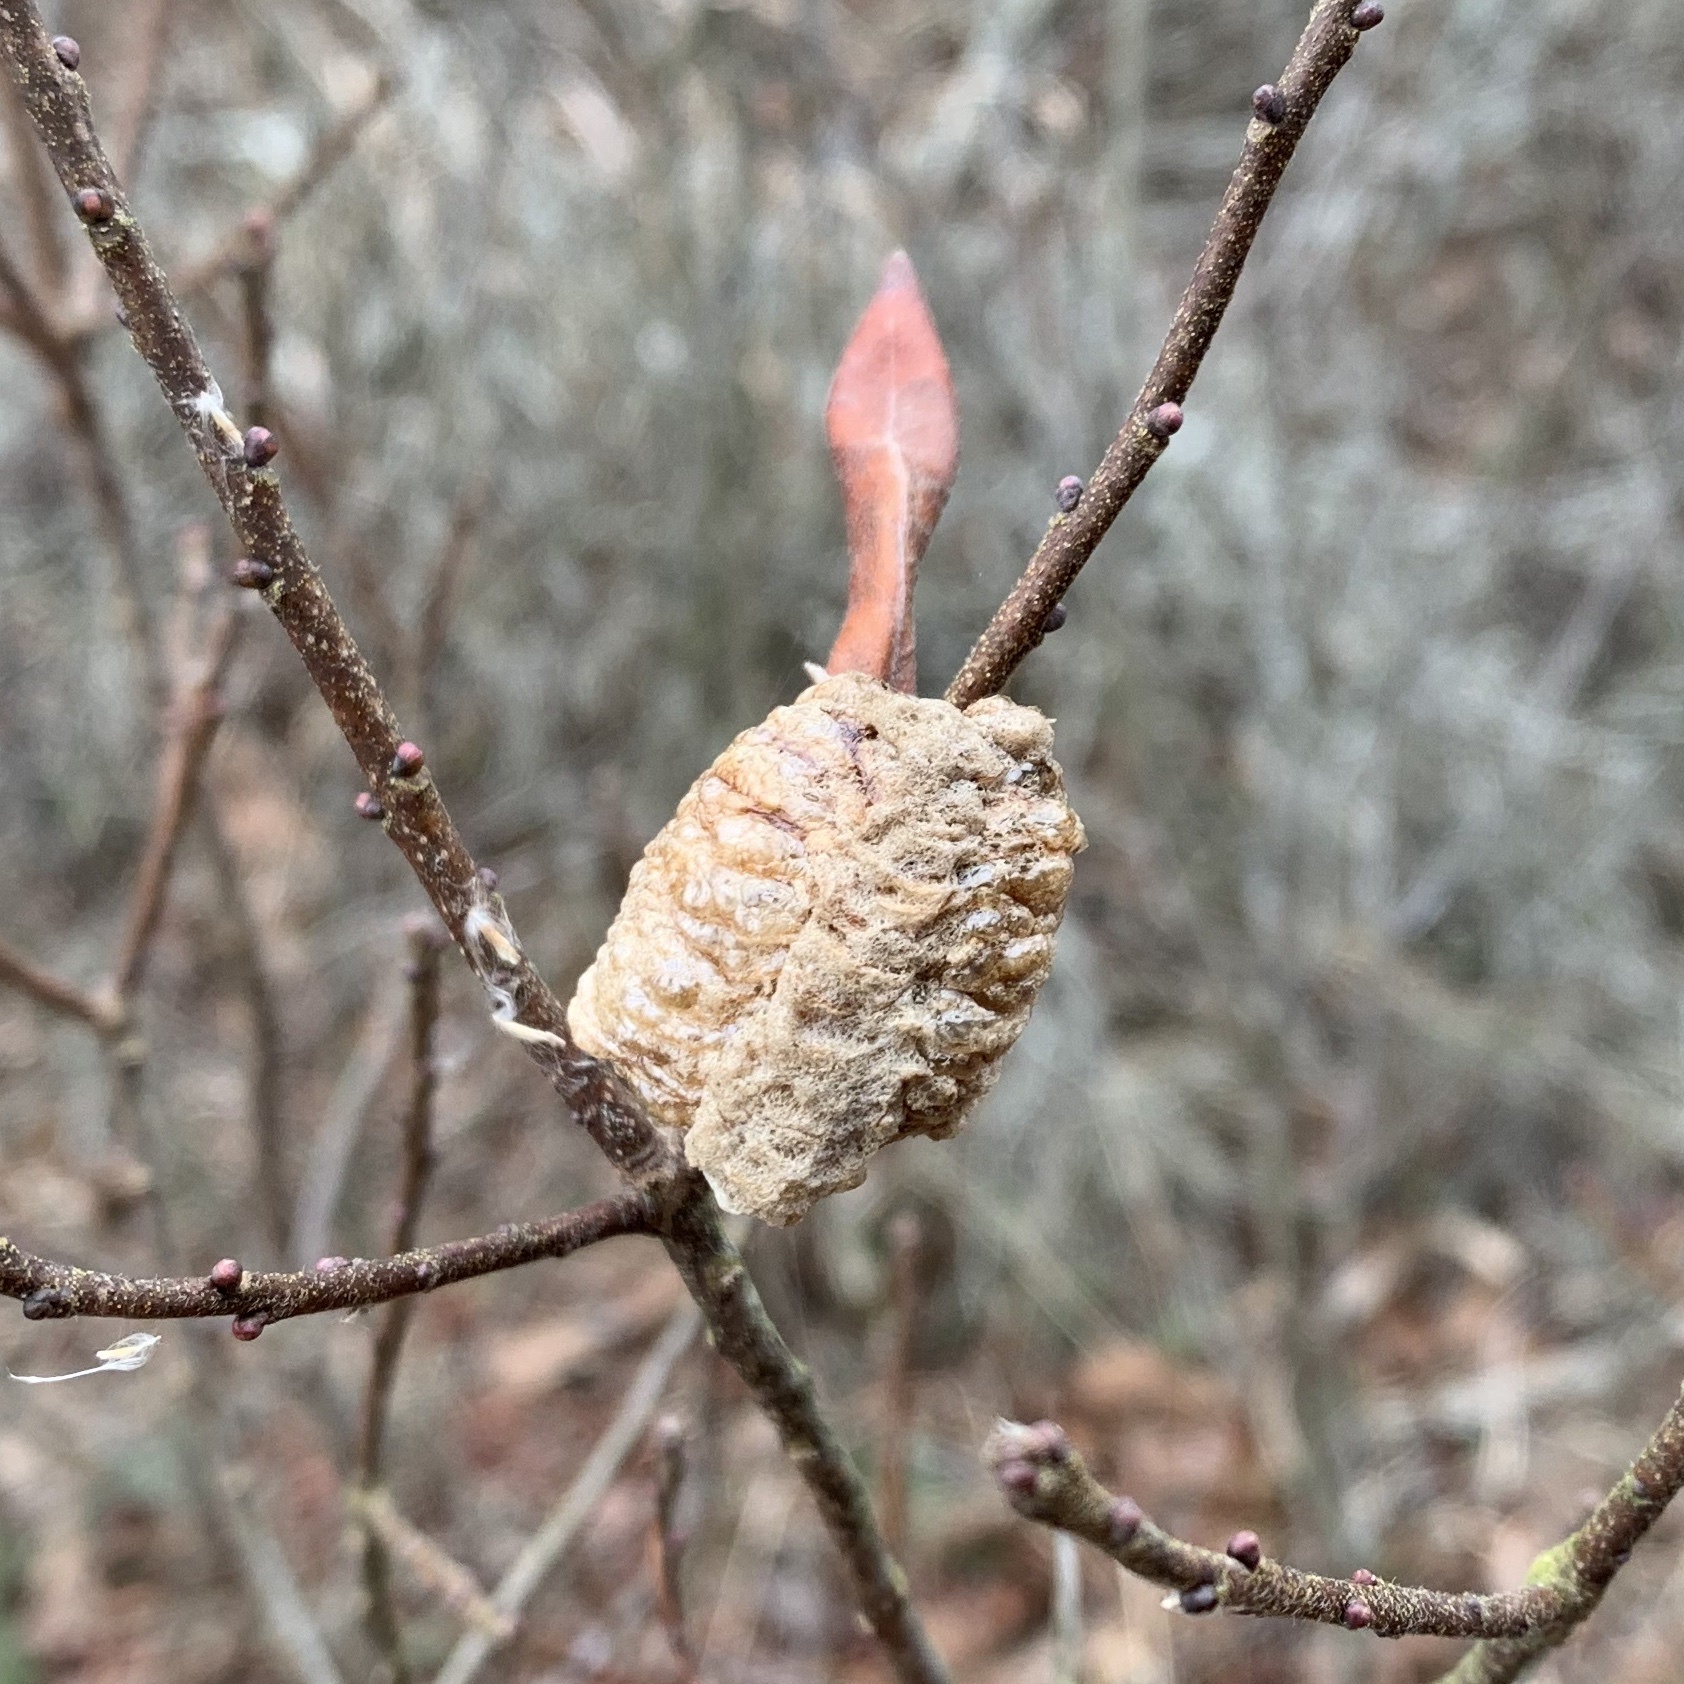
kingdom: Animalia
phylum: Arthropoda
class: Insecta
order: Mantodea
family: Mantidae
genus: Tenodera
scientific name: Tenodera sinensis
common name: Chinese mantis
